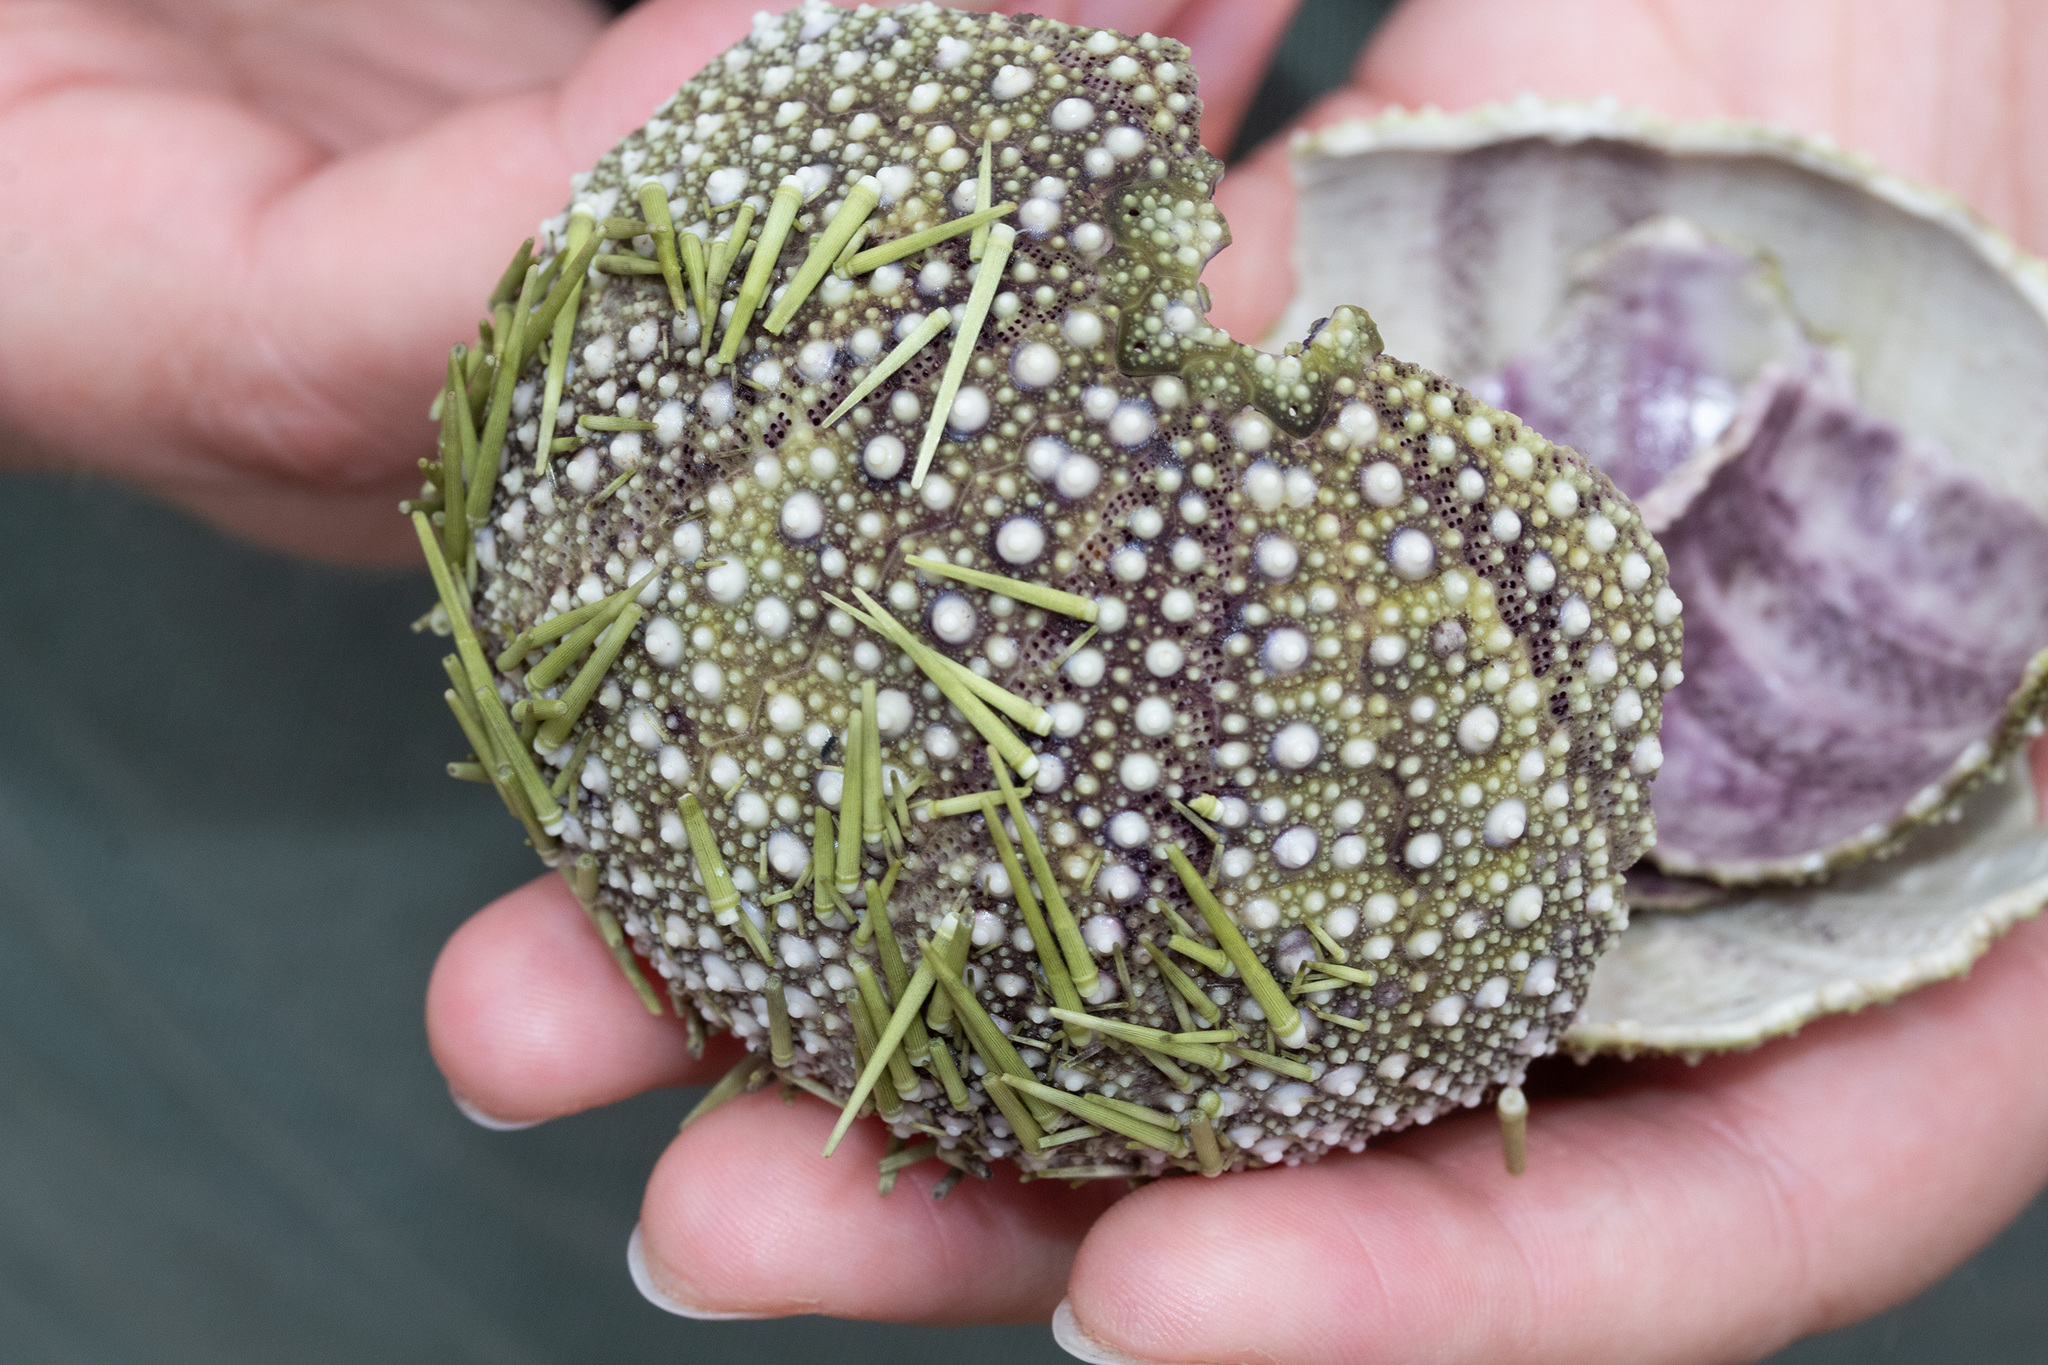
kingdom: Animalia
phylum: Echinodermata
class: Echinoidea
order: Camarodonta
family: Strongylocentrotidae
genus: Strongylocentrotus
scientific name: Strongylocentrotus droebachiensis
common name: Northern sea urchin
